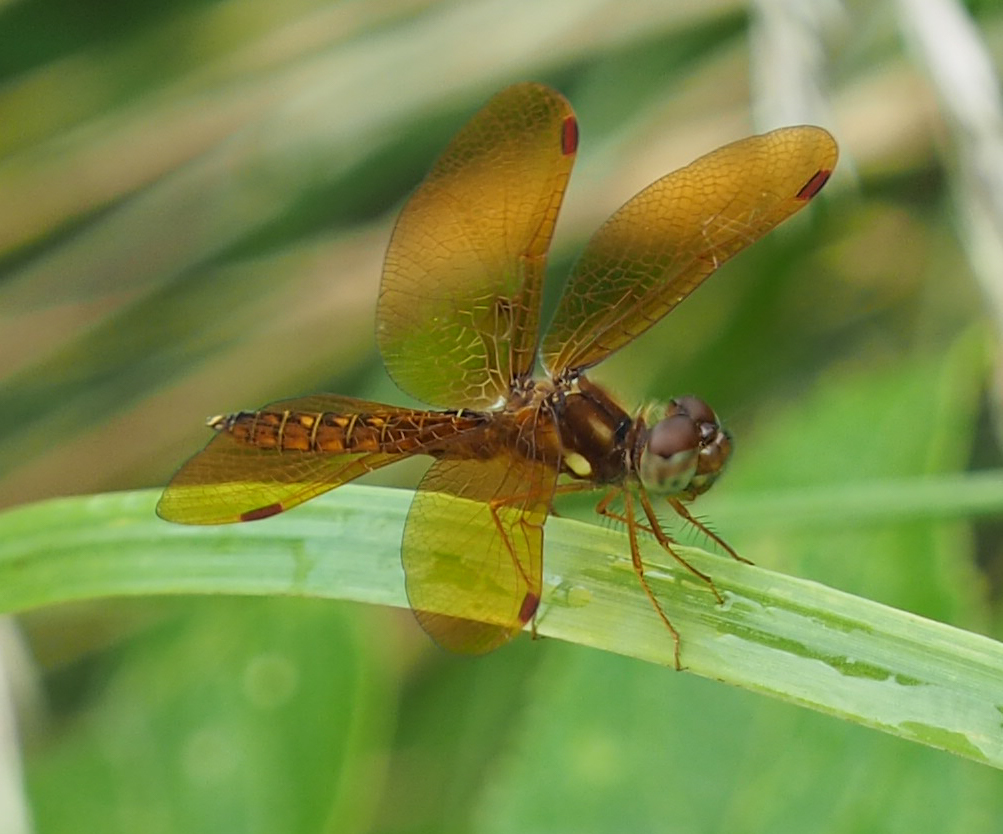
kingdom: Animalia
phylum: Arthropoda
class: Insecta
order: Odonata
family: Libellulidae
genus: Perithemis
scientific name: Perithemis tenera
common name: Eastern amberwing
